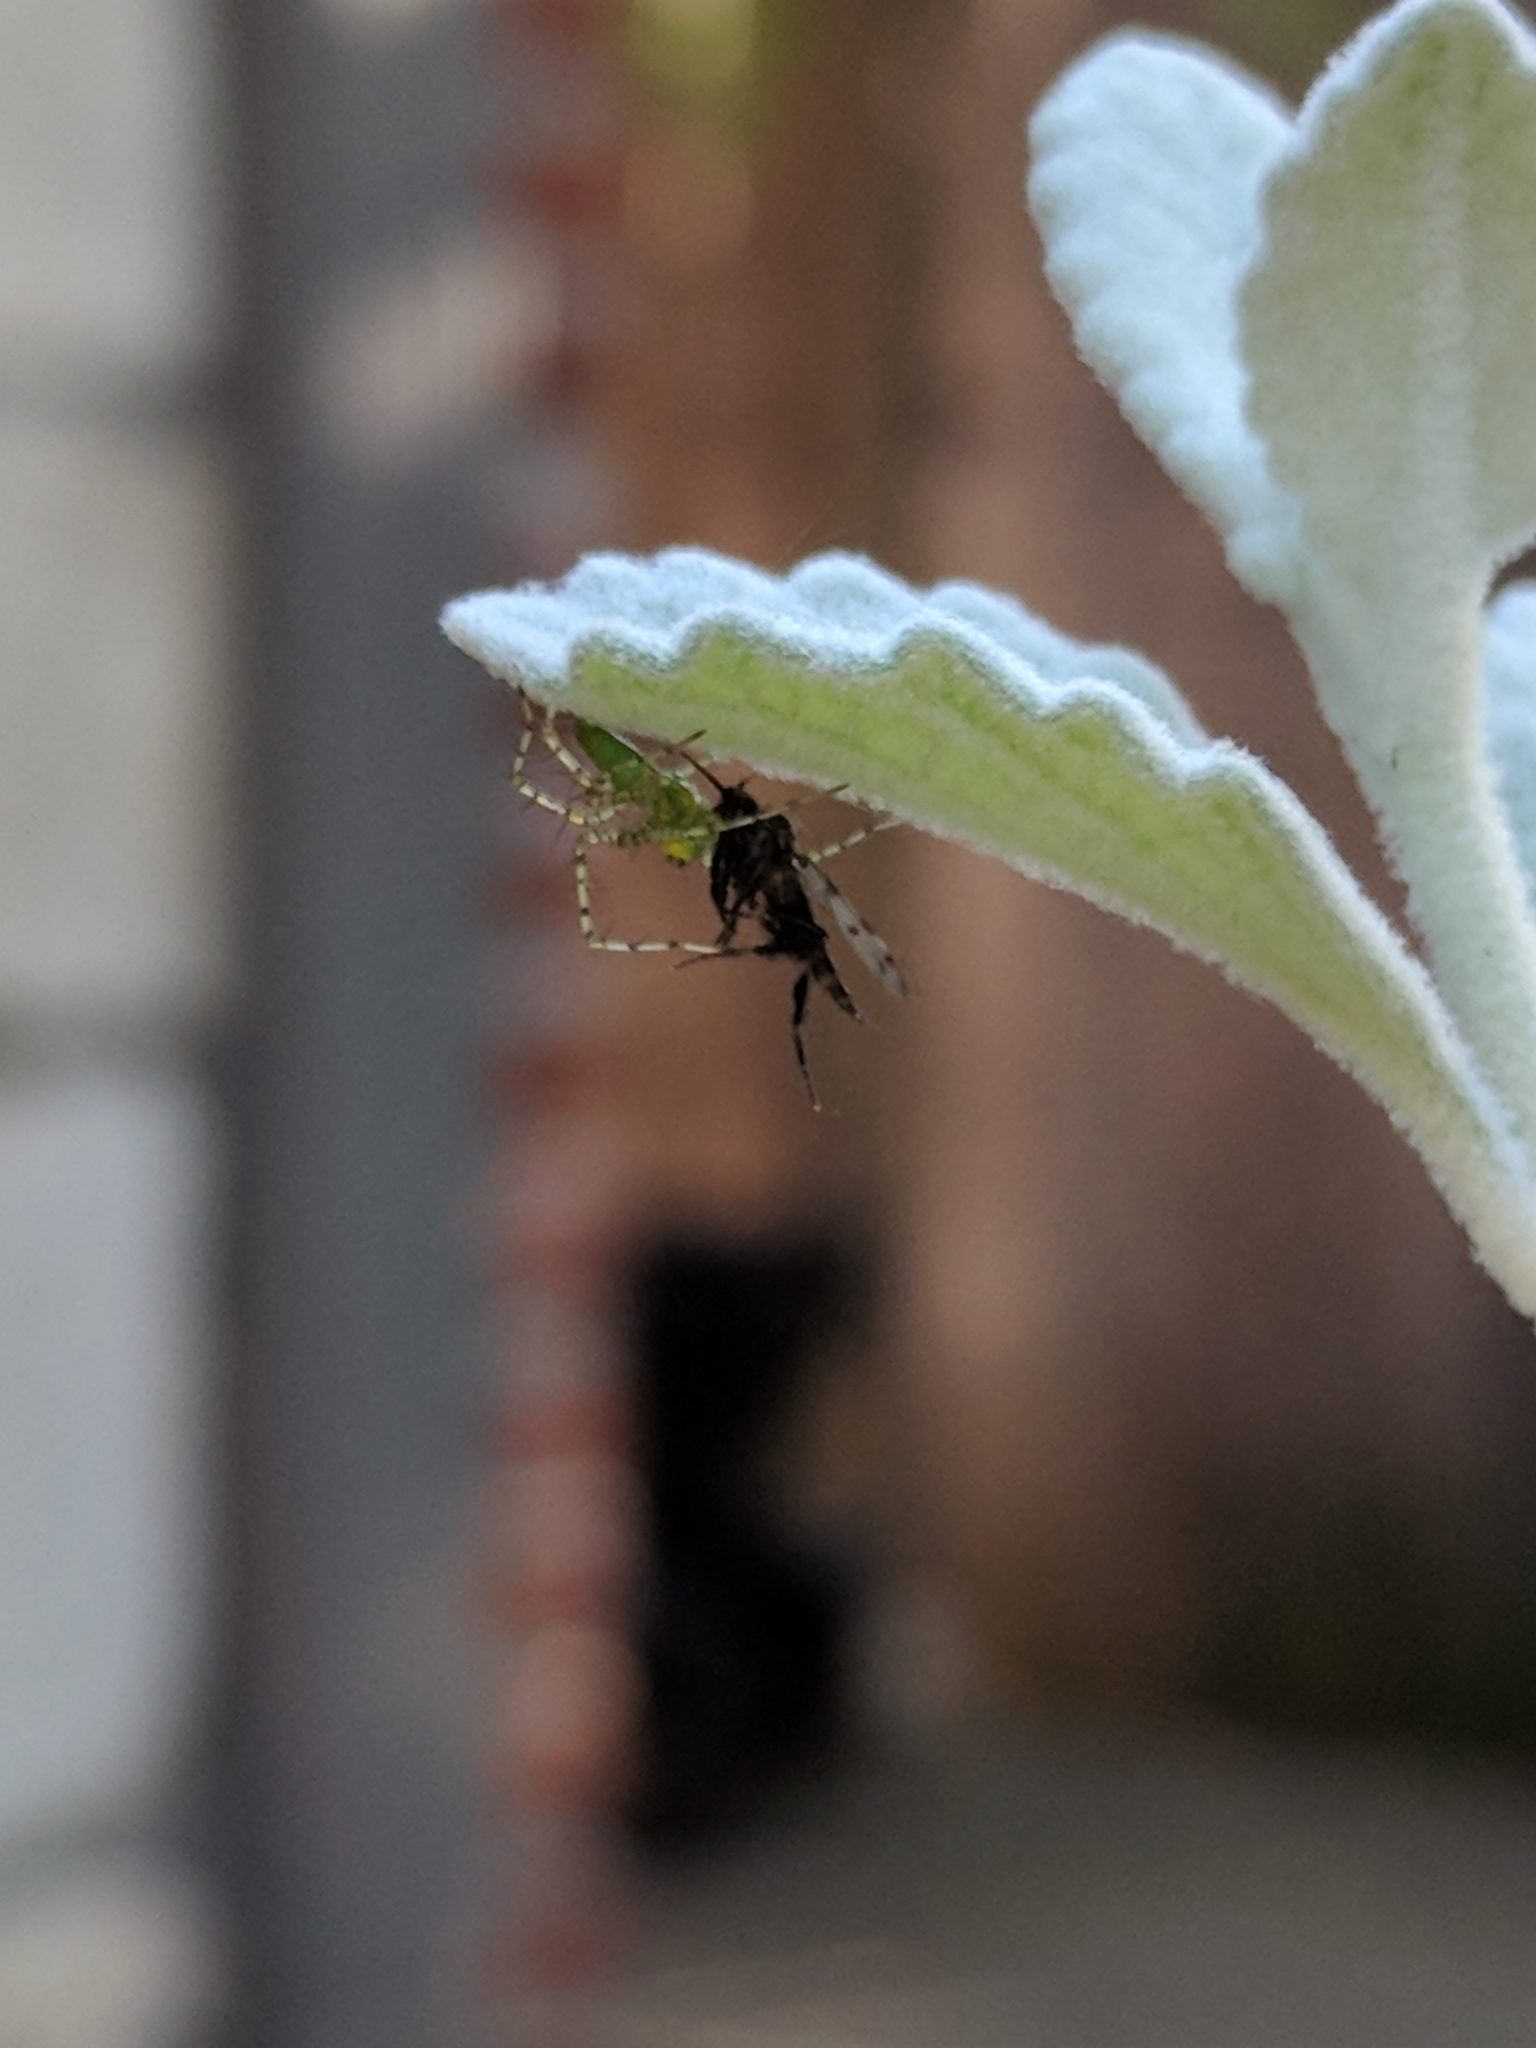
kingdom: Animalia
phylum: Arthropoda
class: Arachnida
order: Araneae
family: Oxyopidae
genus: Peucetia
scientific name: Peucetia viridans
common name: Lynx spiders
